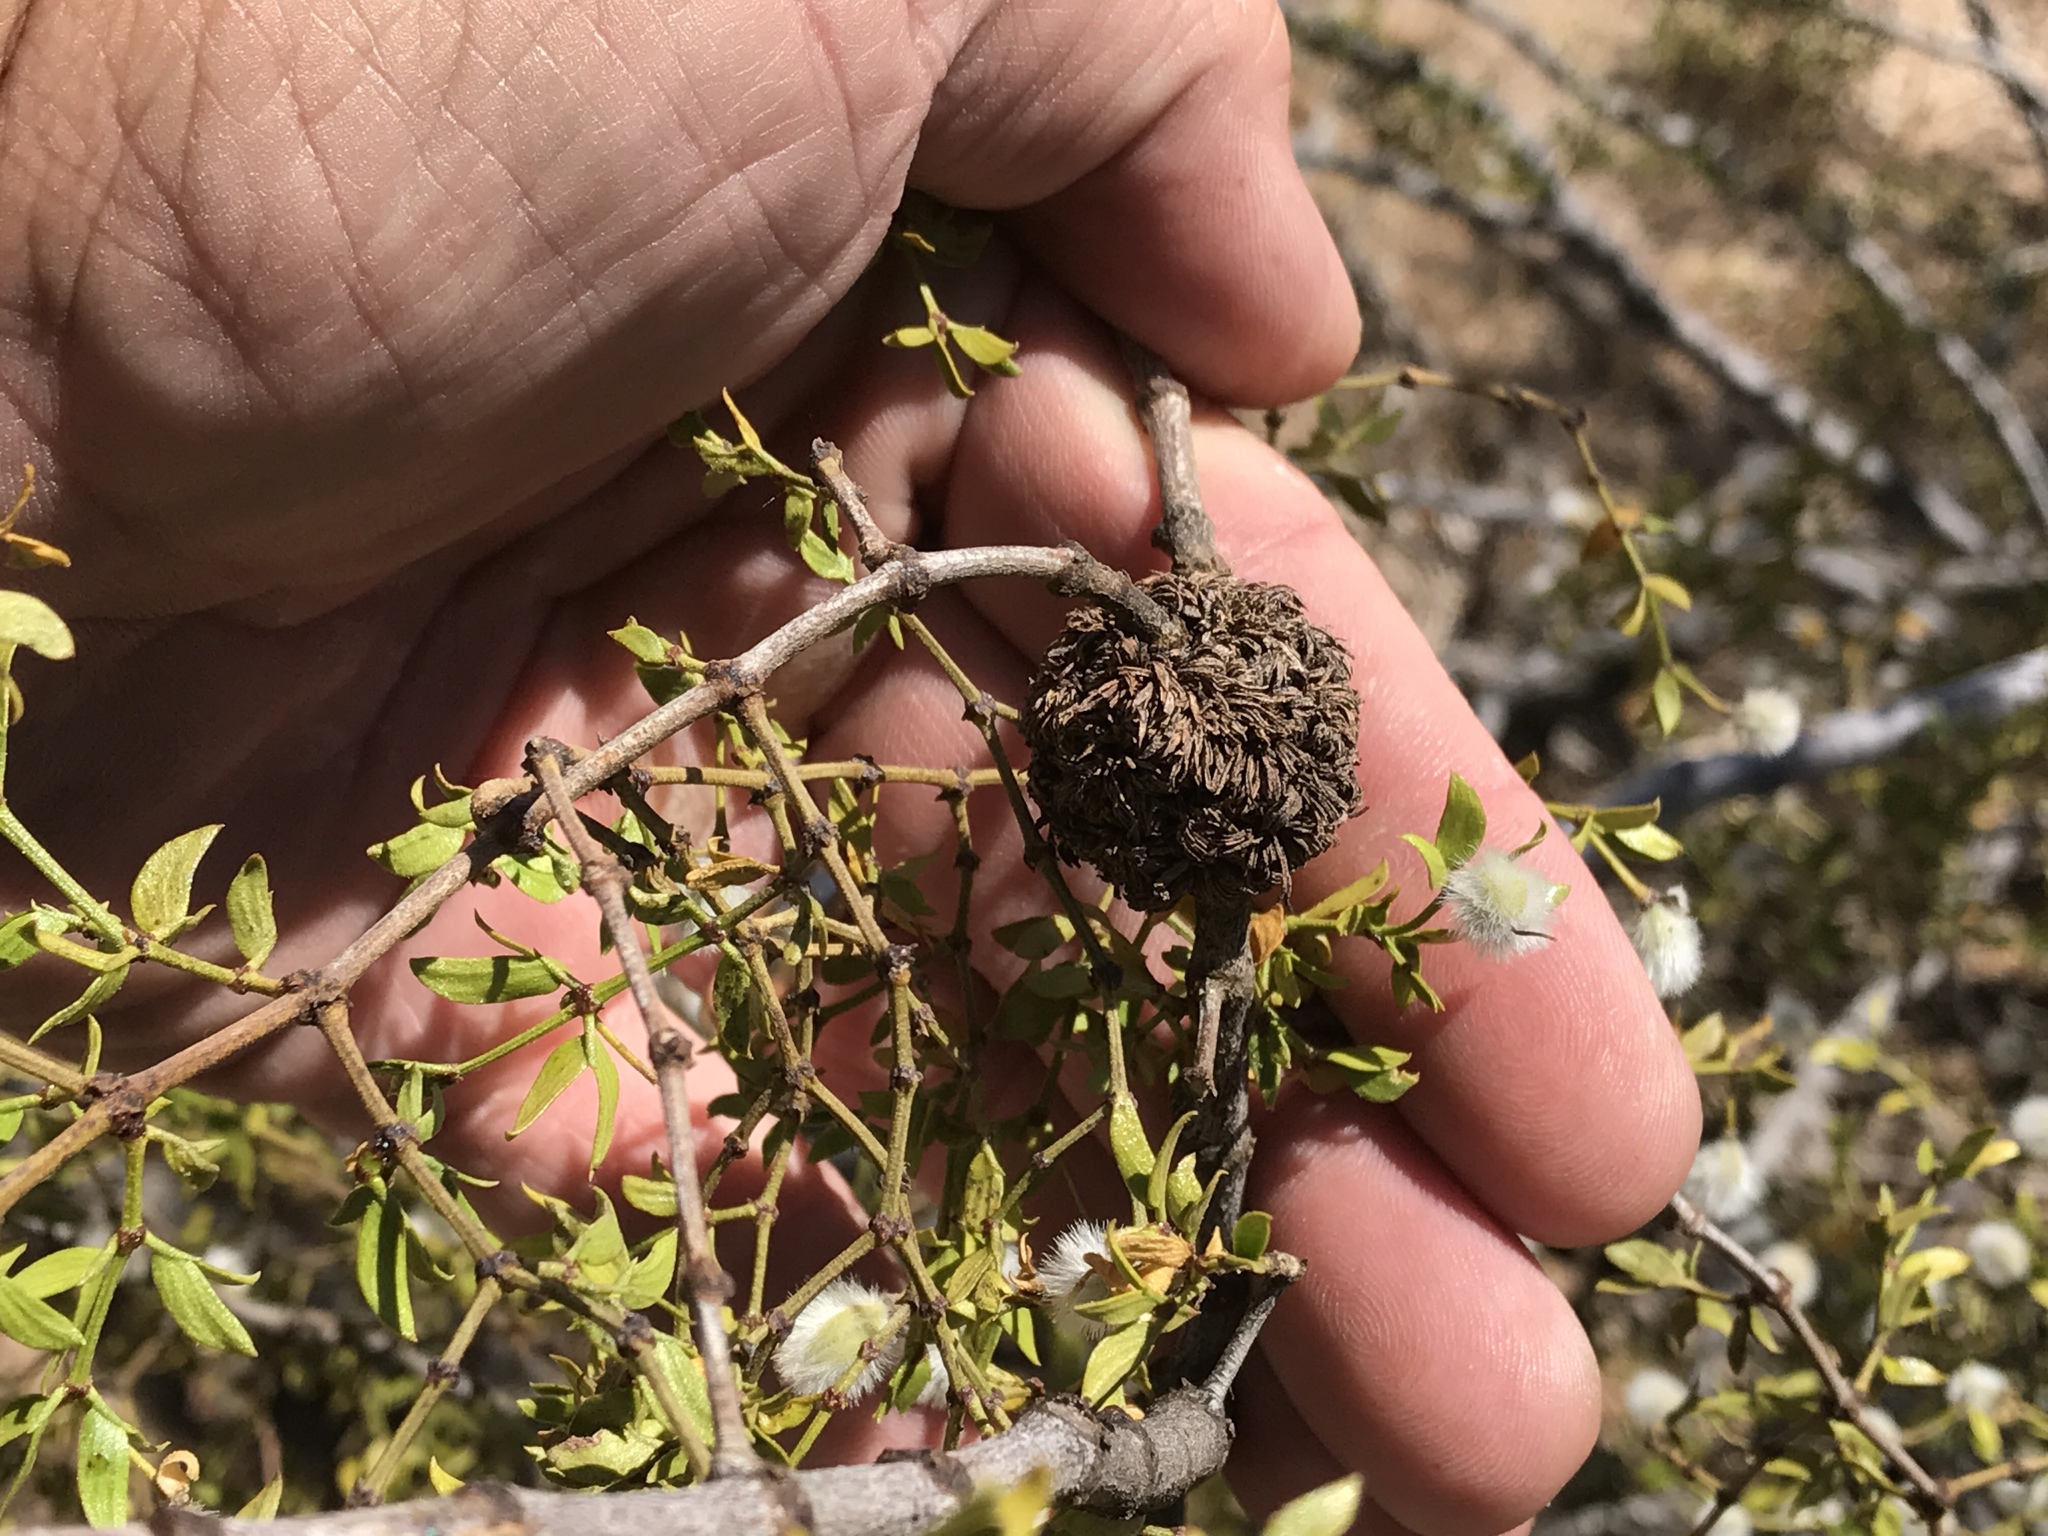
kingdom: Animalia
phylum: Arthropoda
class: Insecta
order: Diptera
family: Cecidomyiidae
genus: Asphondylia
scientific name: Asphondylia auripila
